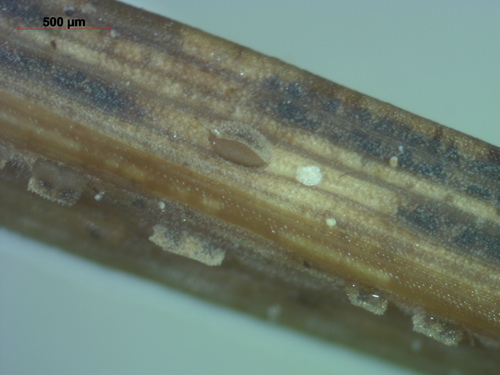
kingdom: Fungi
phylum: Ascomycota
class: Leotiomycetes
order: Helotiales
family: Dermateaceae
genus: Hysteropezizella
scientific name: Hysteropezizella diminuens
